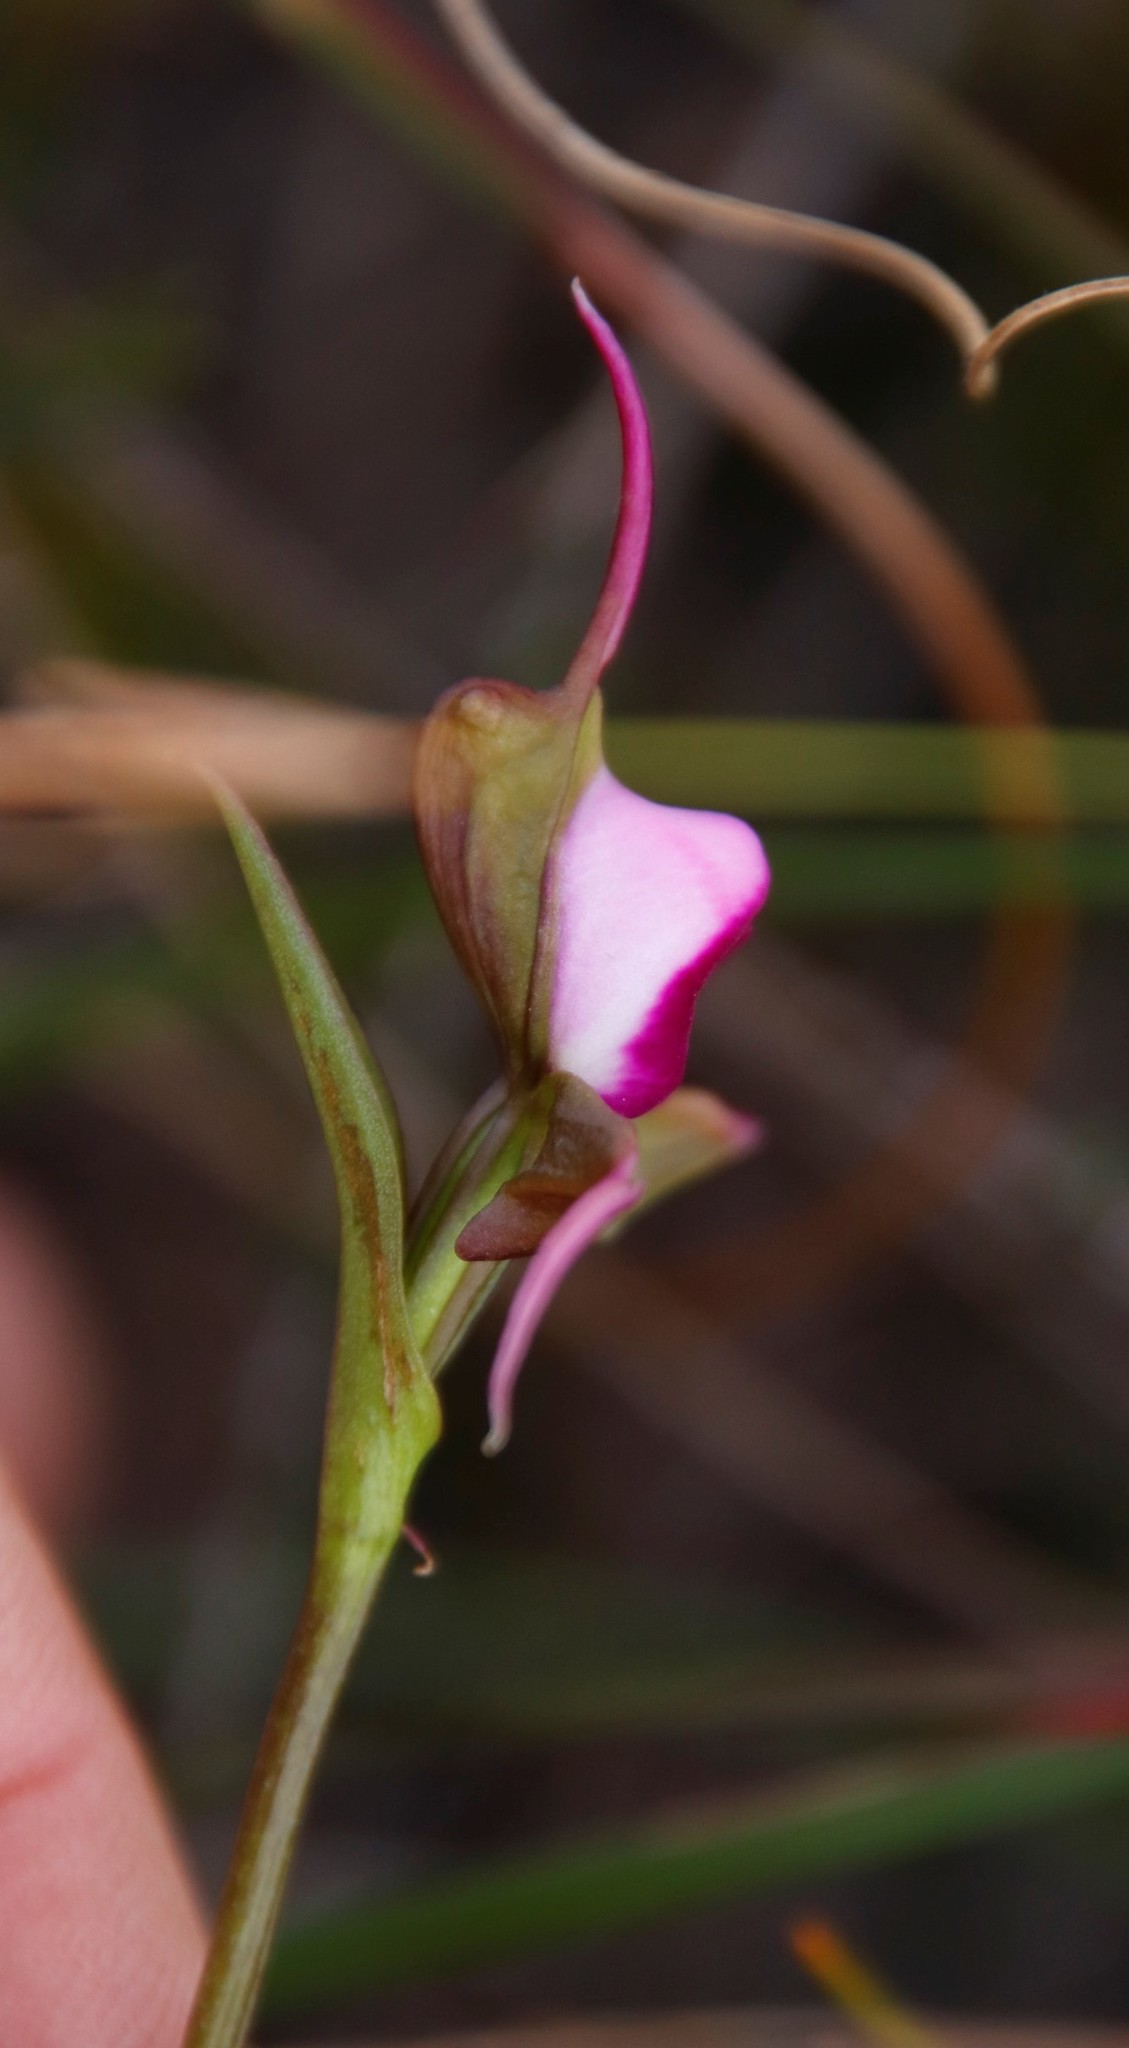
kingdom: Plantae
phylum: Tracheophyta
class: Liliopsida
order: Asparagales
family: Orchidaceae
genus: Disperis
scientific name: Disperis capensis
